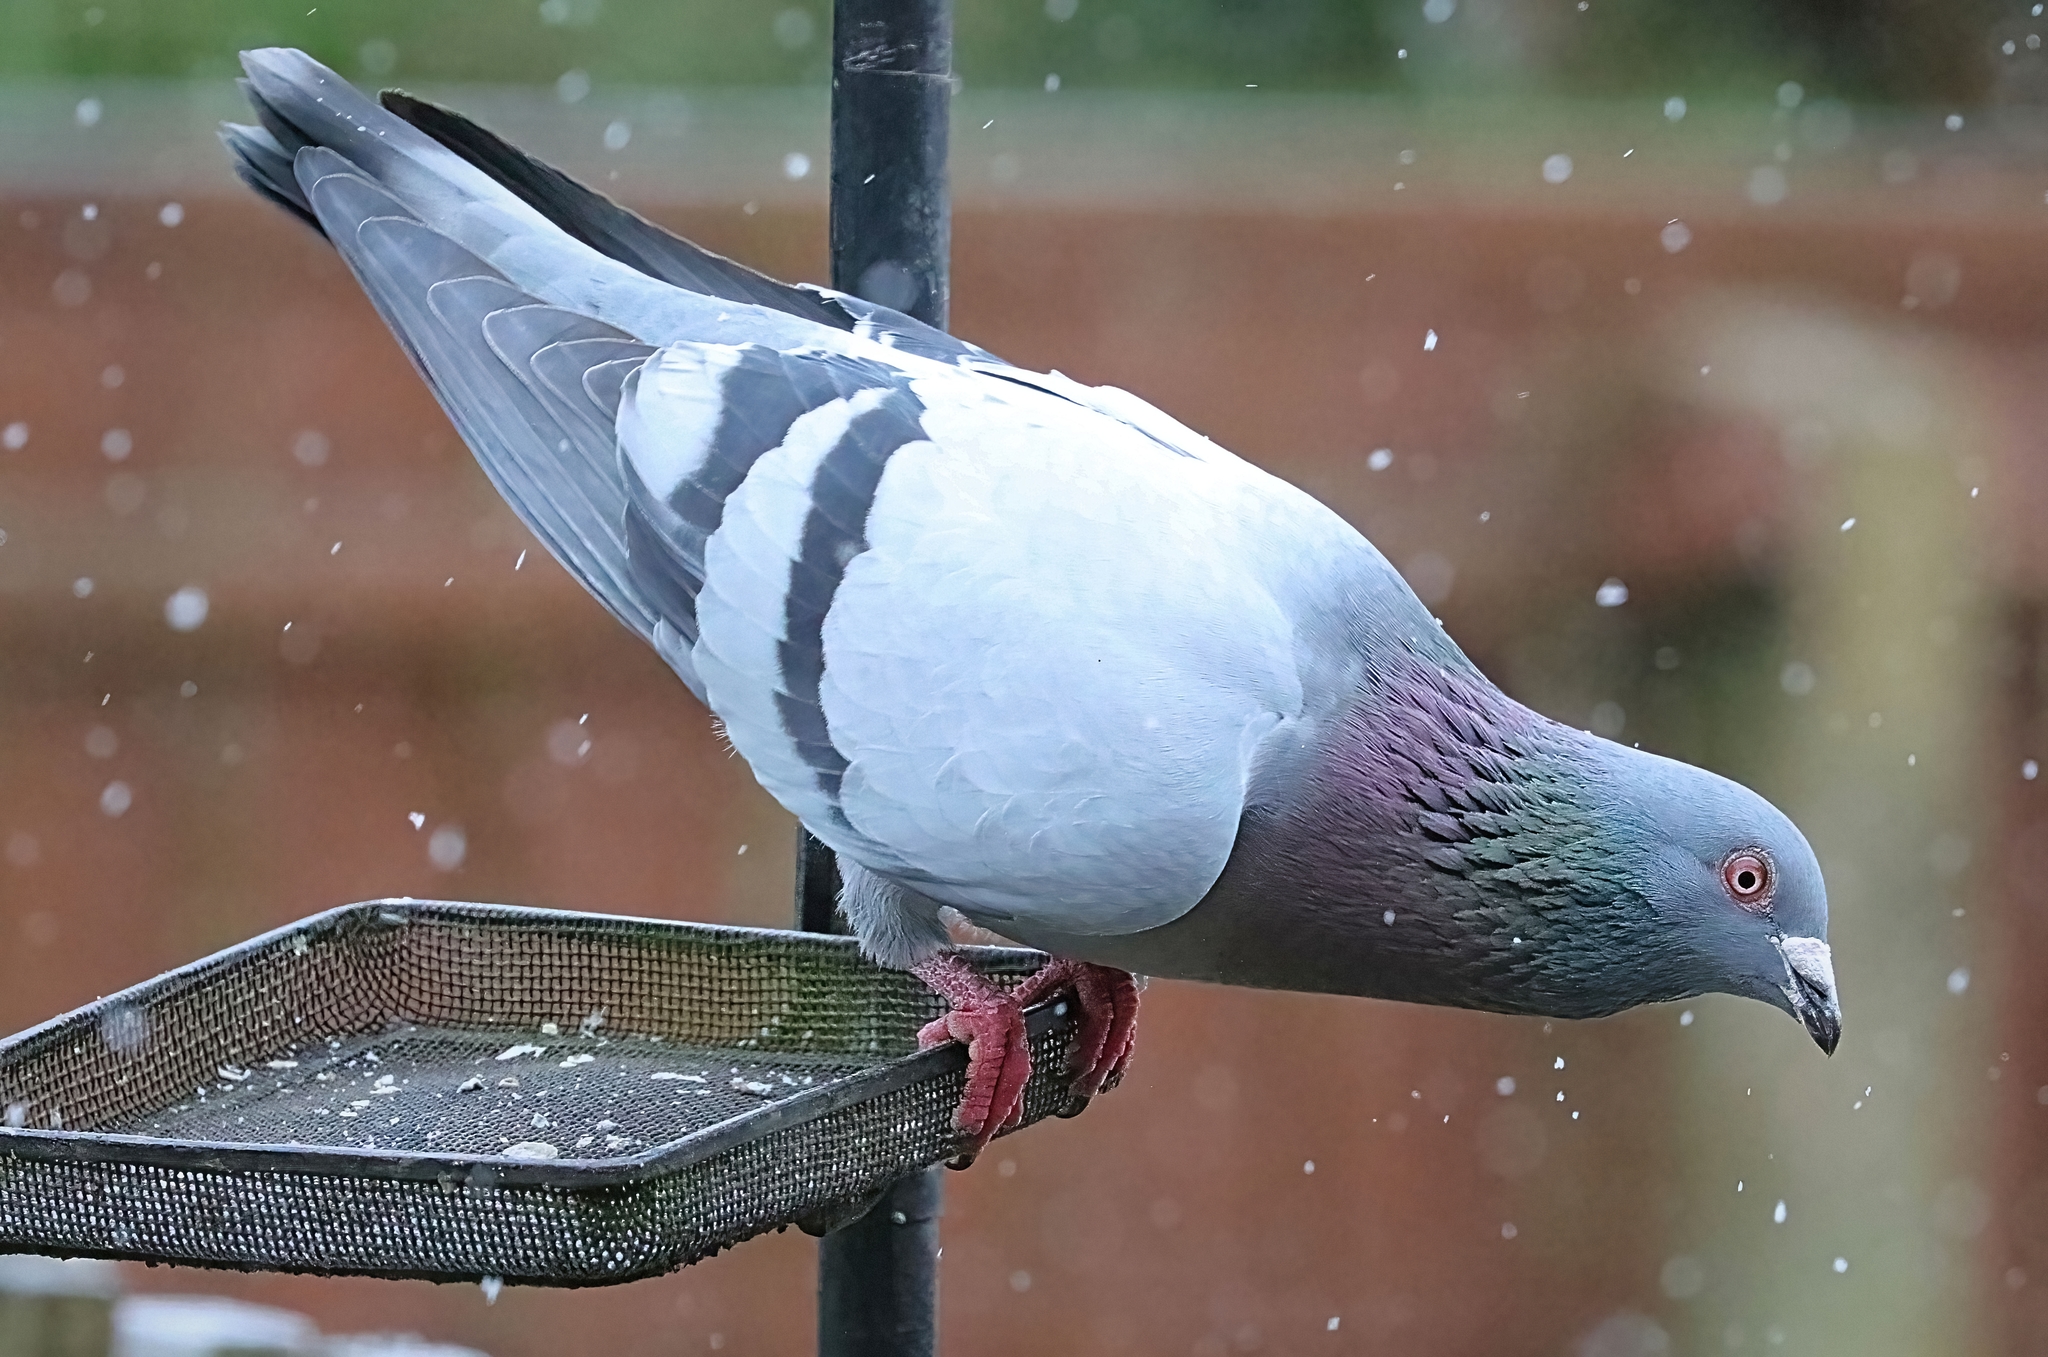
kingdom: Animalia
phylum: Chordata
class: Aves
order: Columbiformes
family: Columbidae
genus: Columba
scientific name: Columba livia
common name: Rock pigeon
